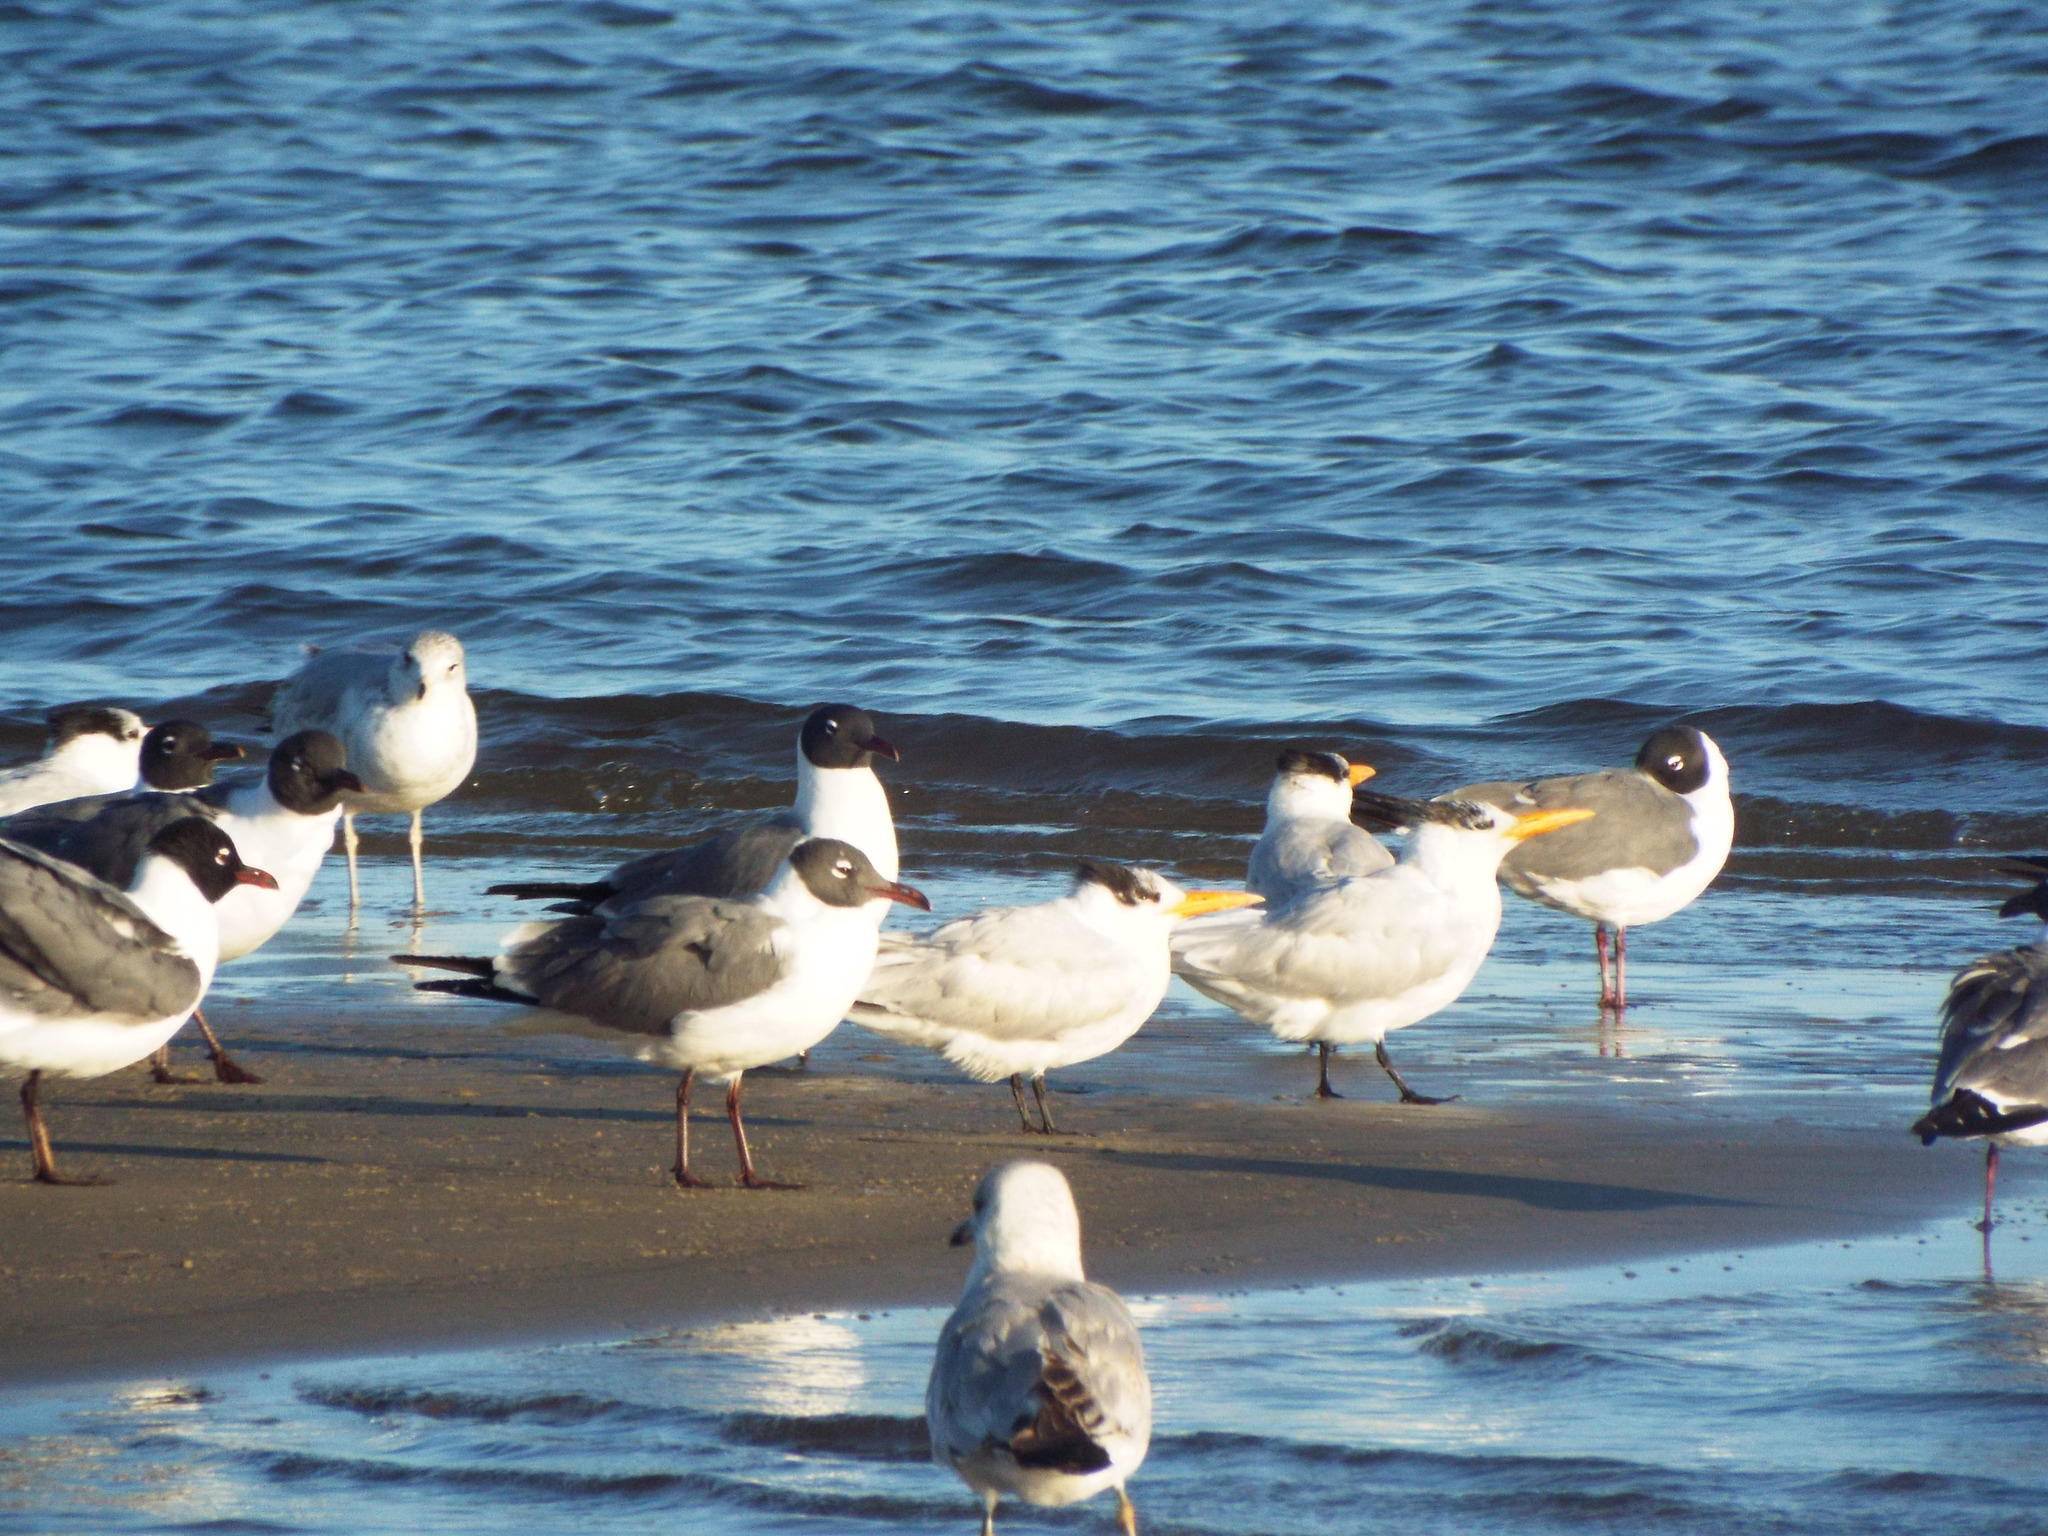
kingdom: Animalia
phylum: Chordata
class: Aves
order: Charadriiformes
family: Laridae
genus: Thalasseus
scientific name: Thalasseus maximus
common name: Royal tern
